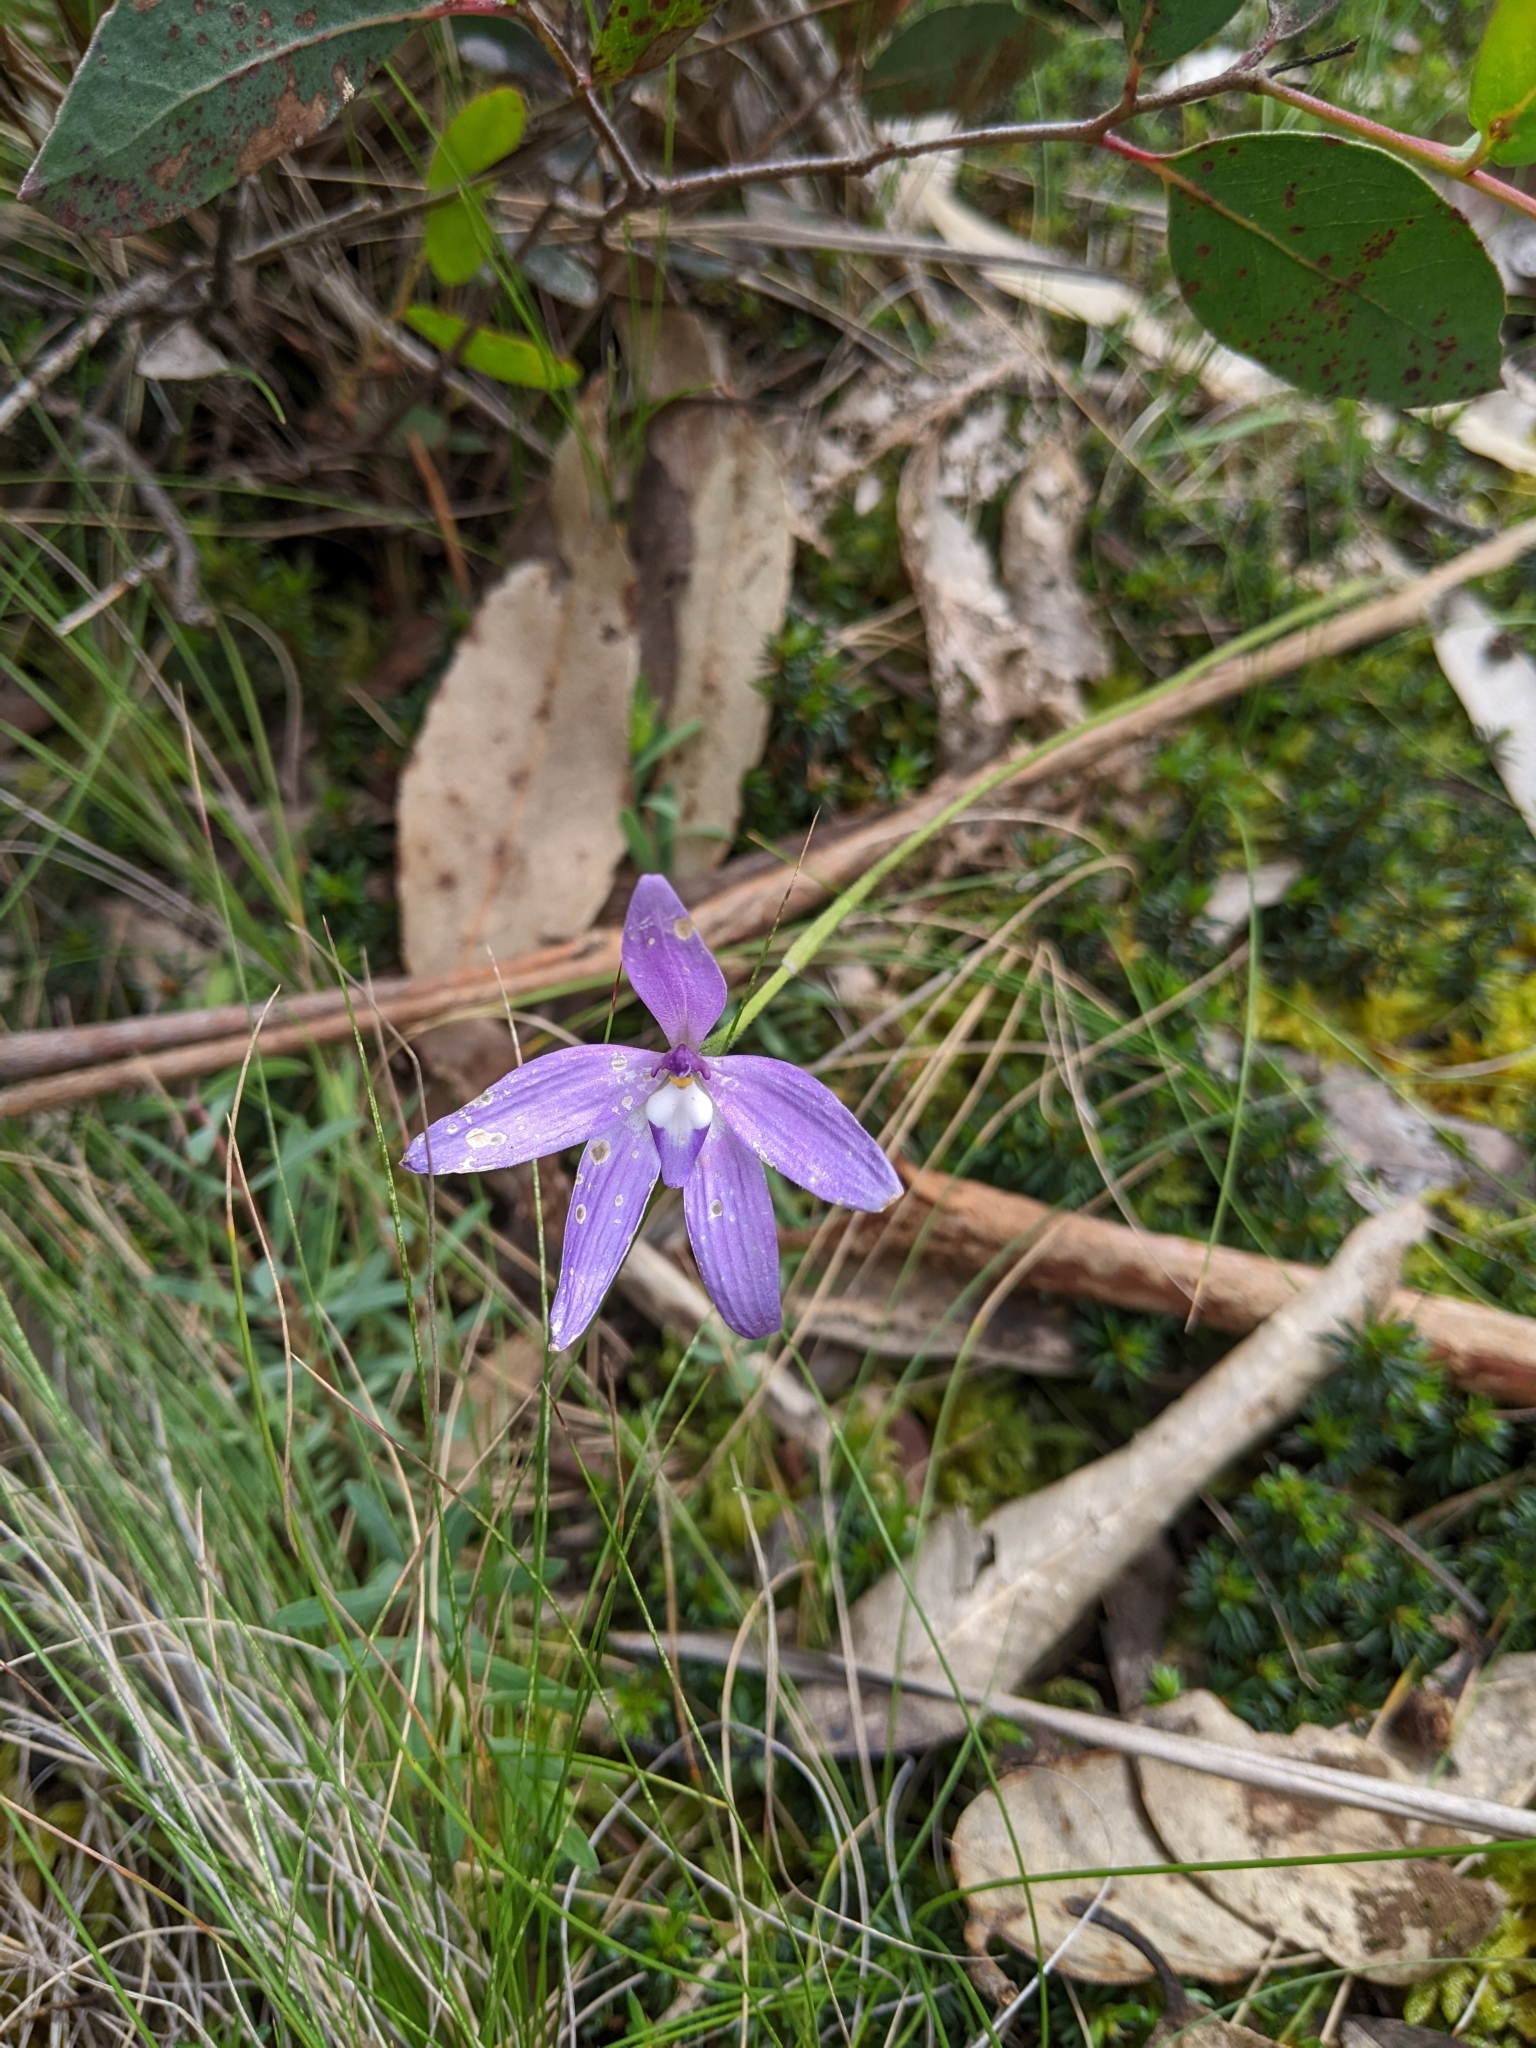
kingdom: Plantae
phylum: Tracheophyta
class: Liliopsida
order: Asparagales
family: Orchidaceae
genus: Caladenia
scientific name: Caladenia major
